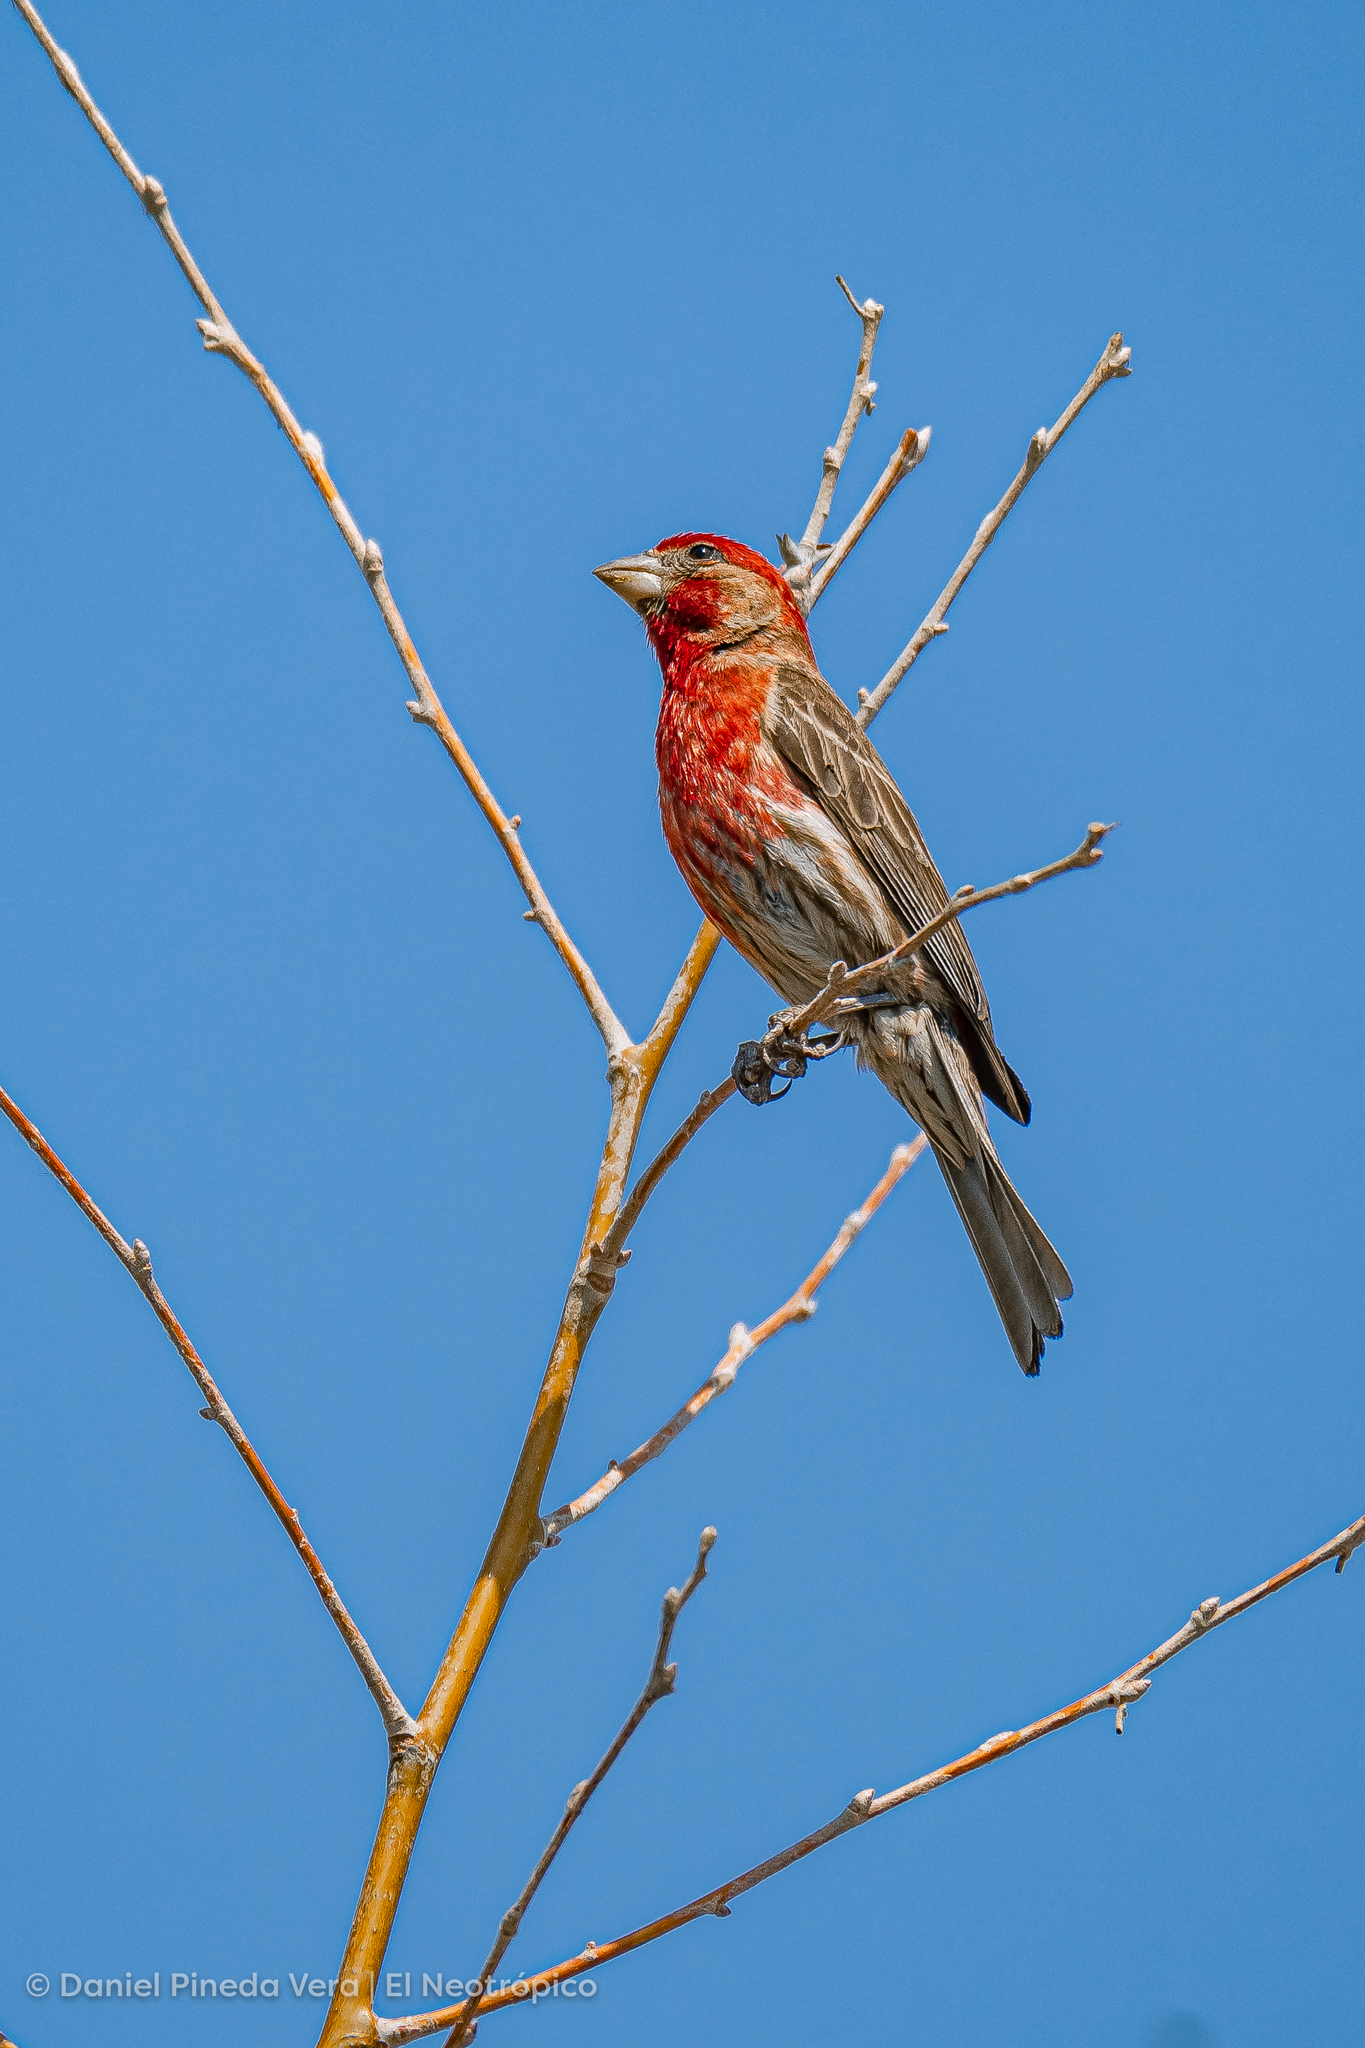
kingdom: Animalia
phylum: Chordata
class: Aves
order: Passeriformes
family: Fringillidae
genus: Haemorhous
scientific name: Haemorhous mexicanus
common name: House finch
